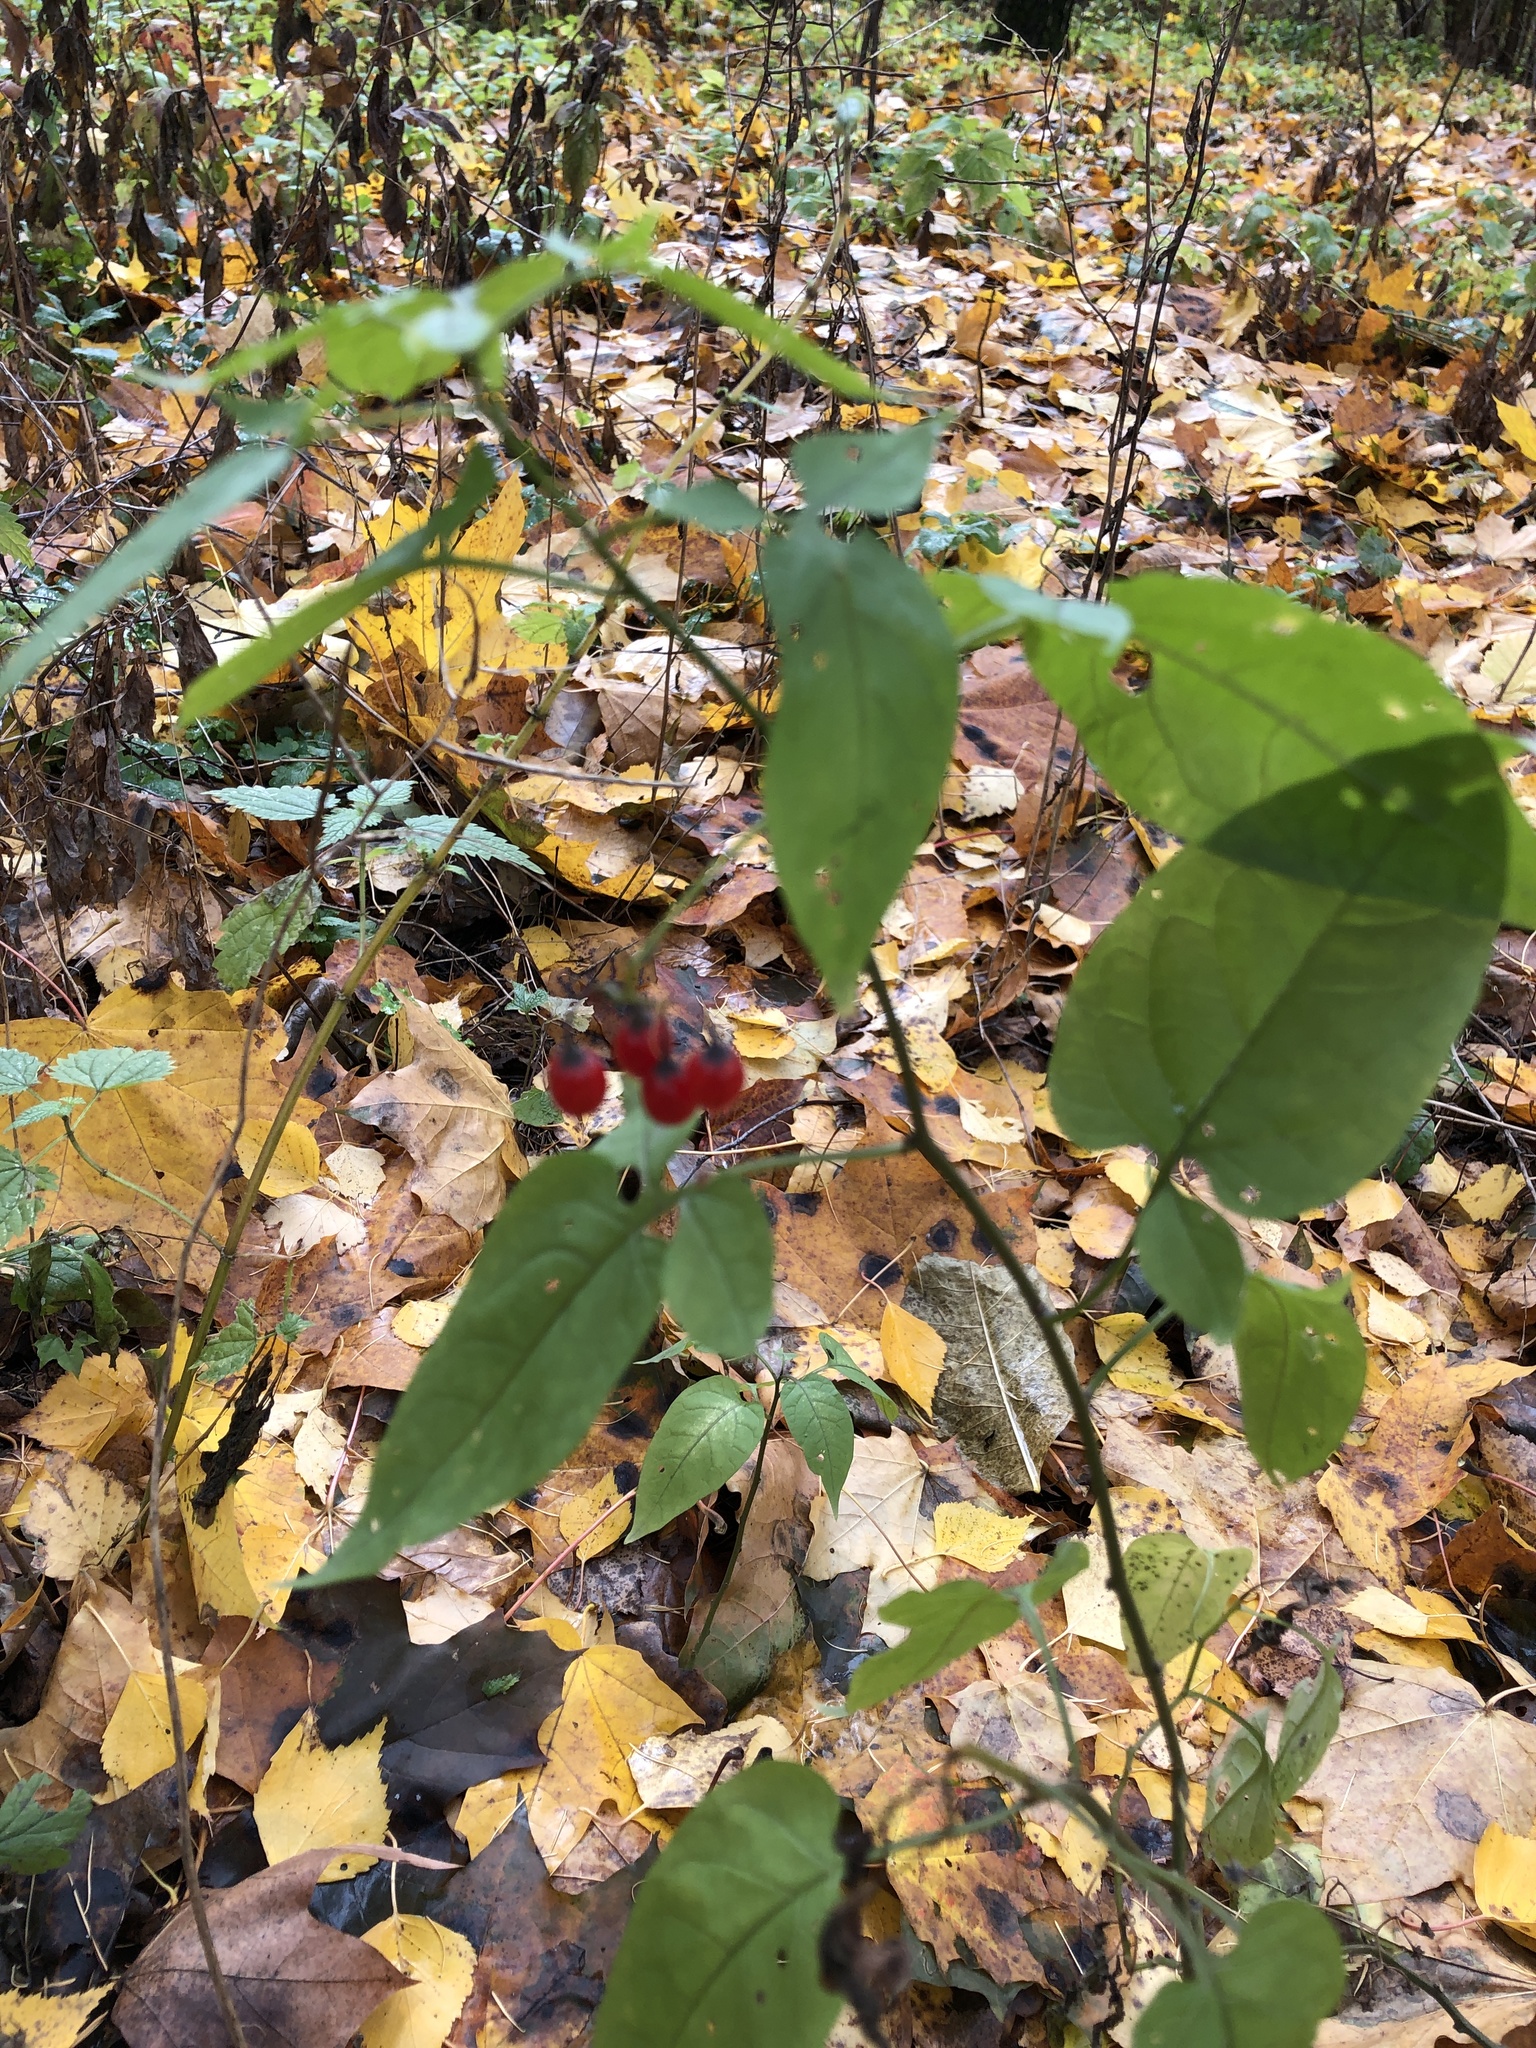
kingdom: Plantae
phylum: Tracheophyta
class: Magnoliopsida
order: Solanales
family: Solanaceae
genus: Solanum
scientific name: Solanum dulcamara
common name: Climbing nightshade
